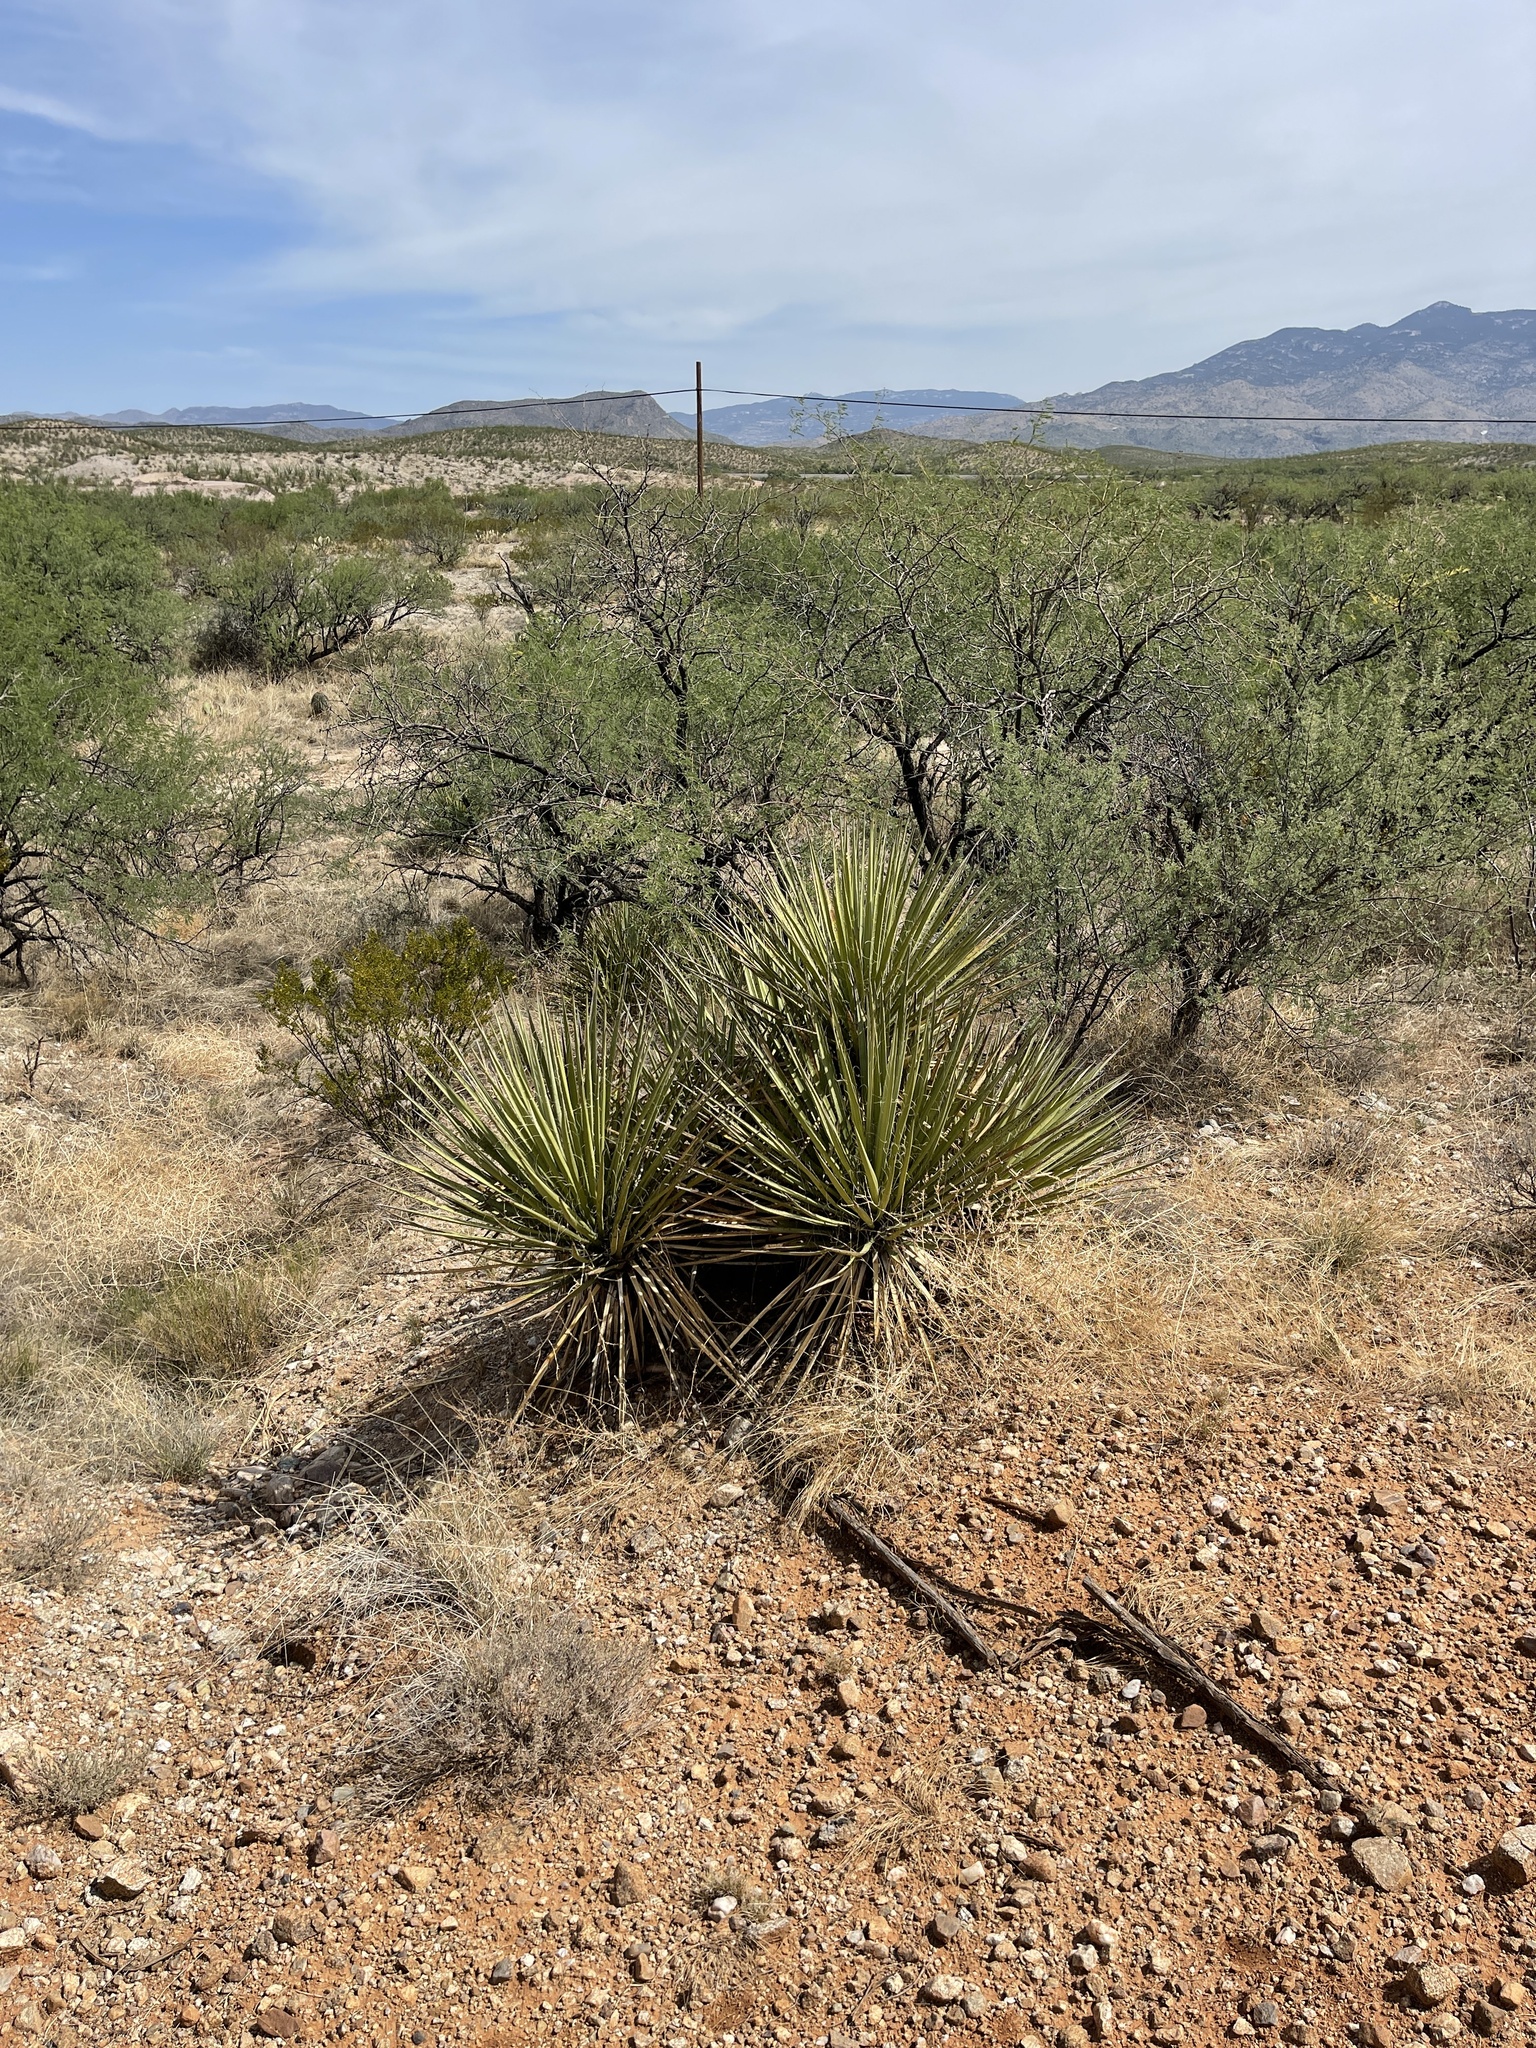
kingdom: Plantae
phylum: Tracheophyta
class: Liliopsida
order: Asparagales
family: Asparagaceae
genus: Yucca
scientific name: Yucca baccata
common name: Banana yucca
